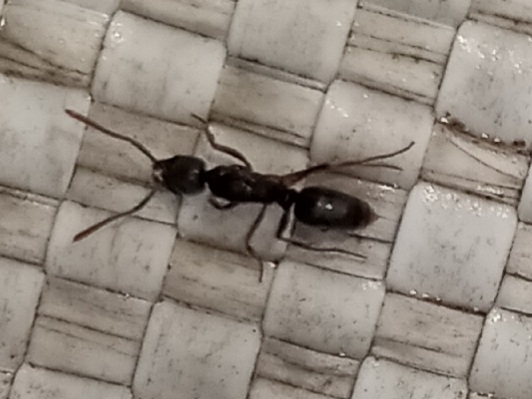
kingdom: Animalia
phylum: Arthropoda
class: Insecta
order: Hymenoptera
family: Formicidae
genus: Pachycondyla
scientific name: Pachycondyla chinensis
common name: Asian needle ant
